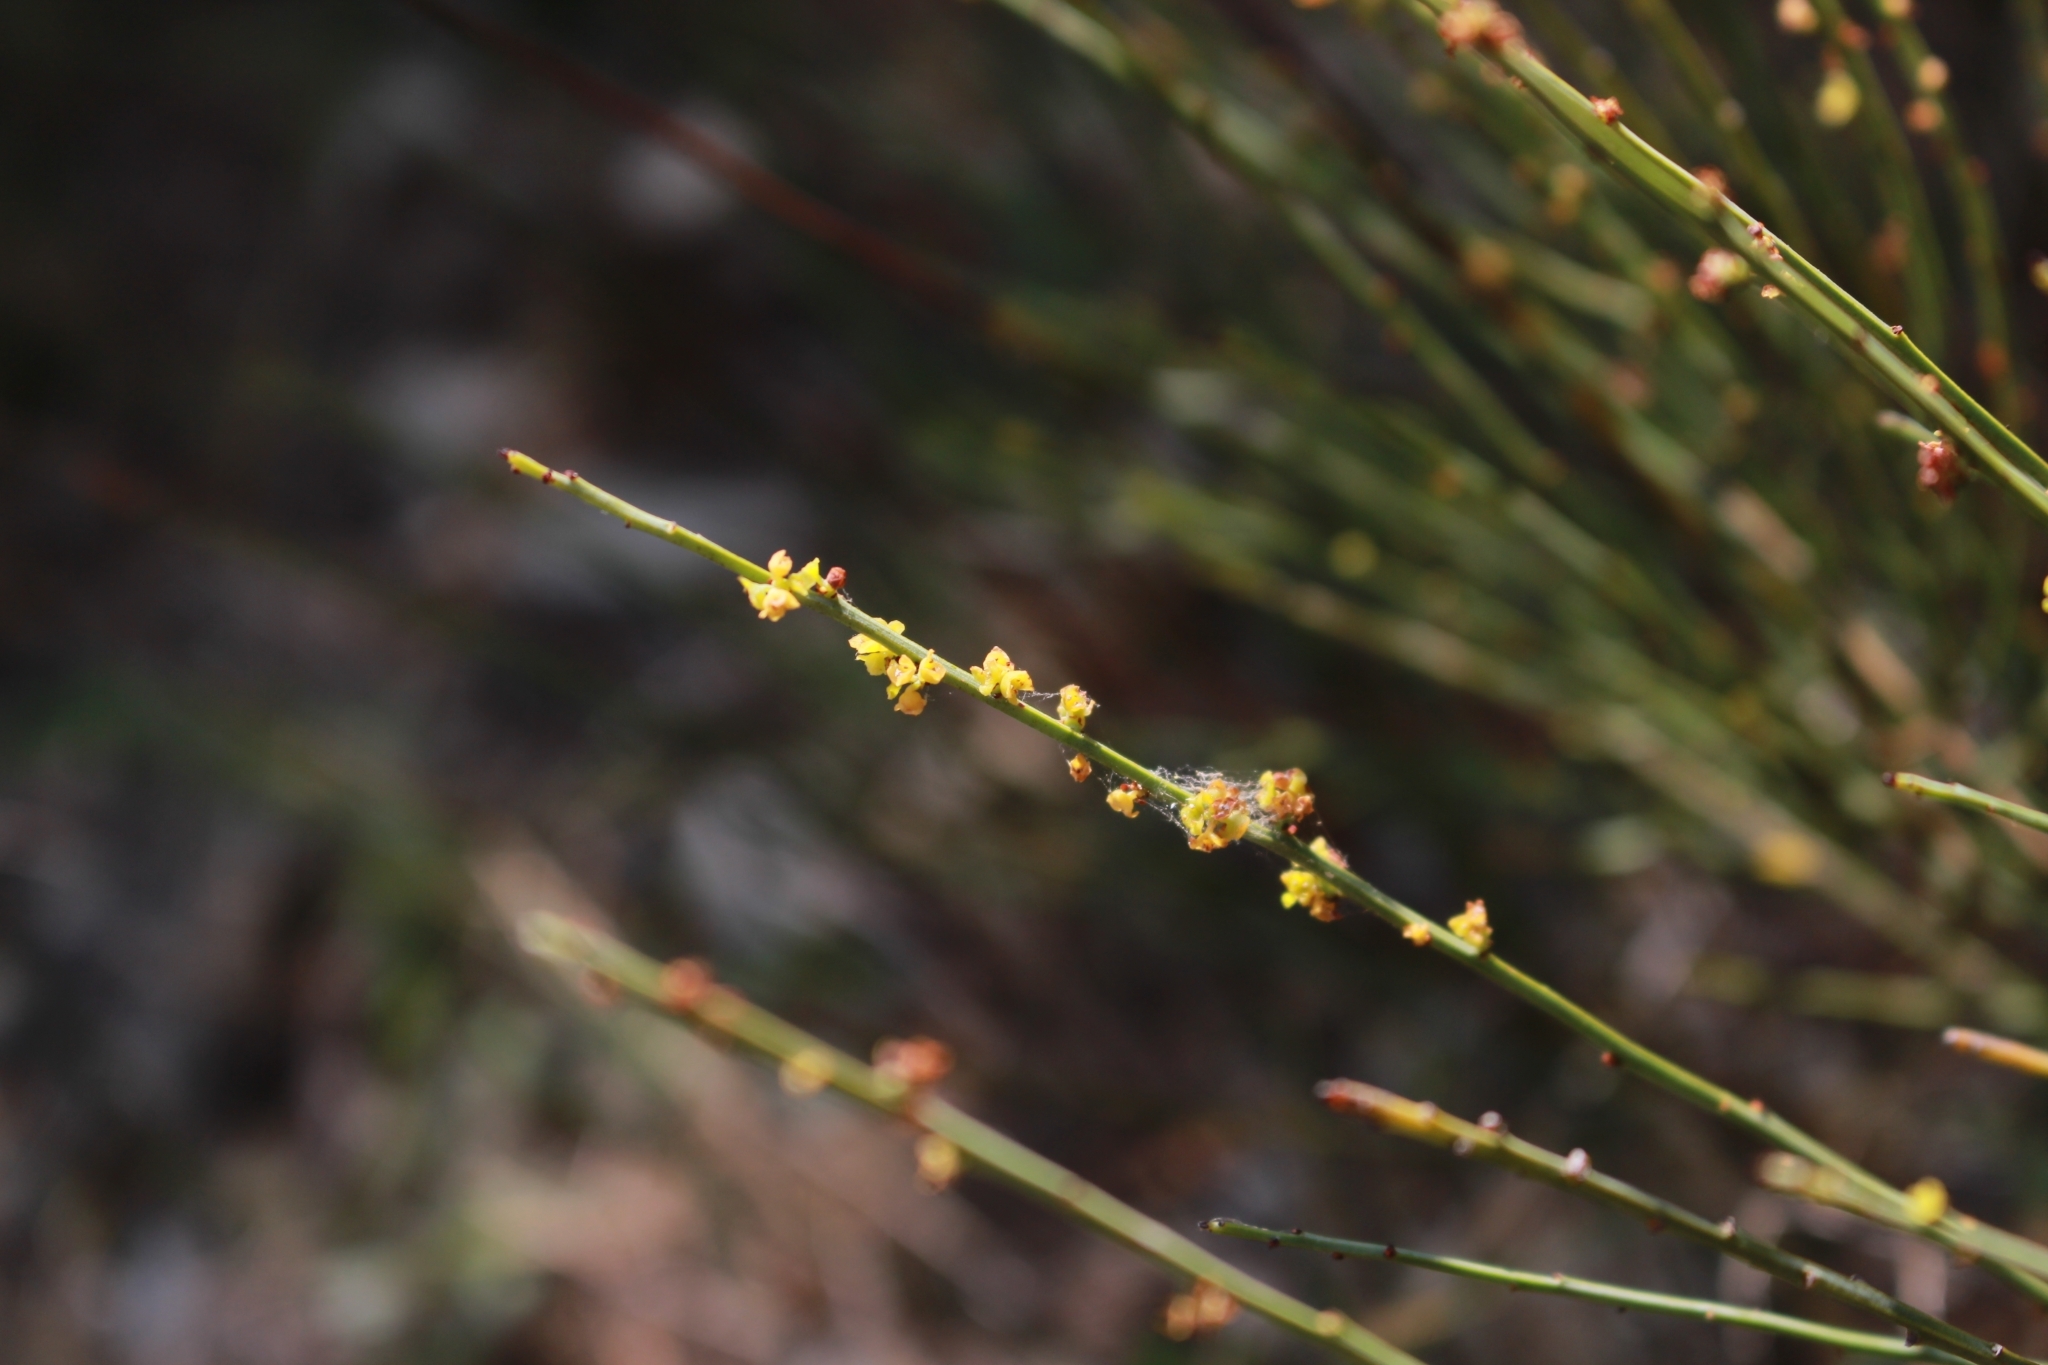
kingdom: Plantae
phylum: Tracheophyta
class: Magnoliopsida
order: Santalales
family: Santalaceae
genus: Osyris
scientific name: Osyris alba
